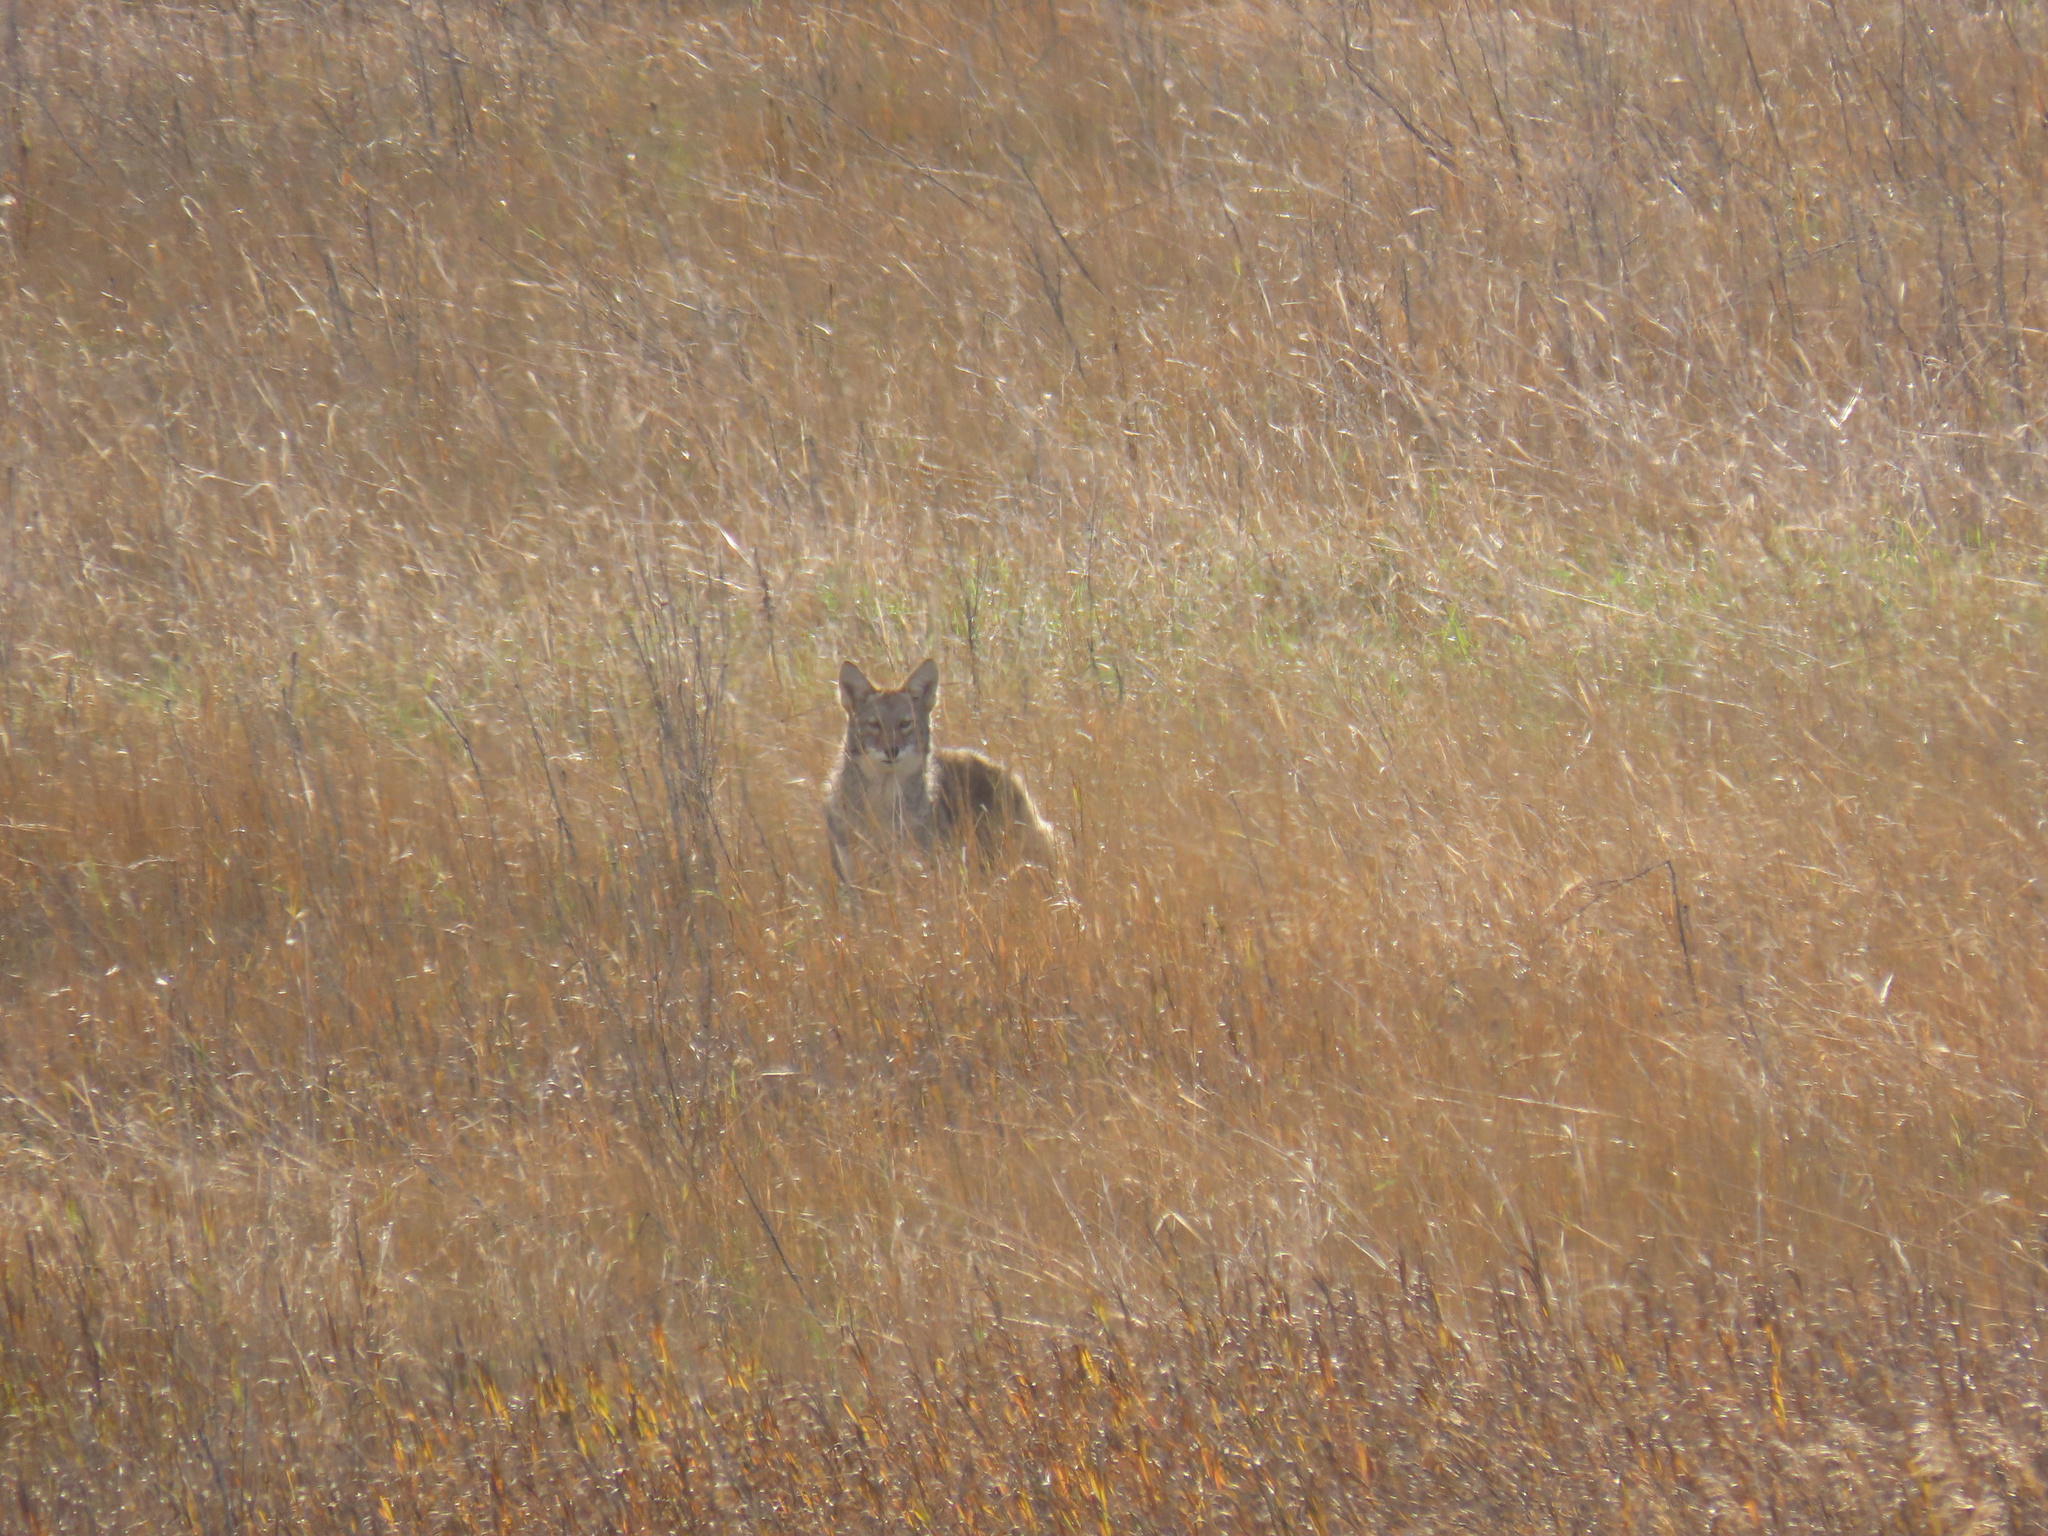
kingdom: Animalia
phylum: Chordata
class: Mammalia
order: Carnivora
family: Canidae
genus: Canis
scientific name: Canis latrans
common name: Coyote
